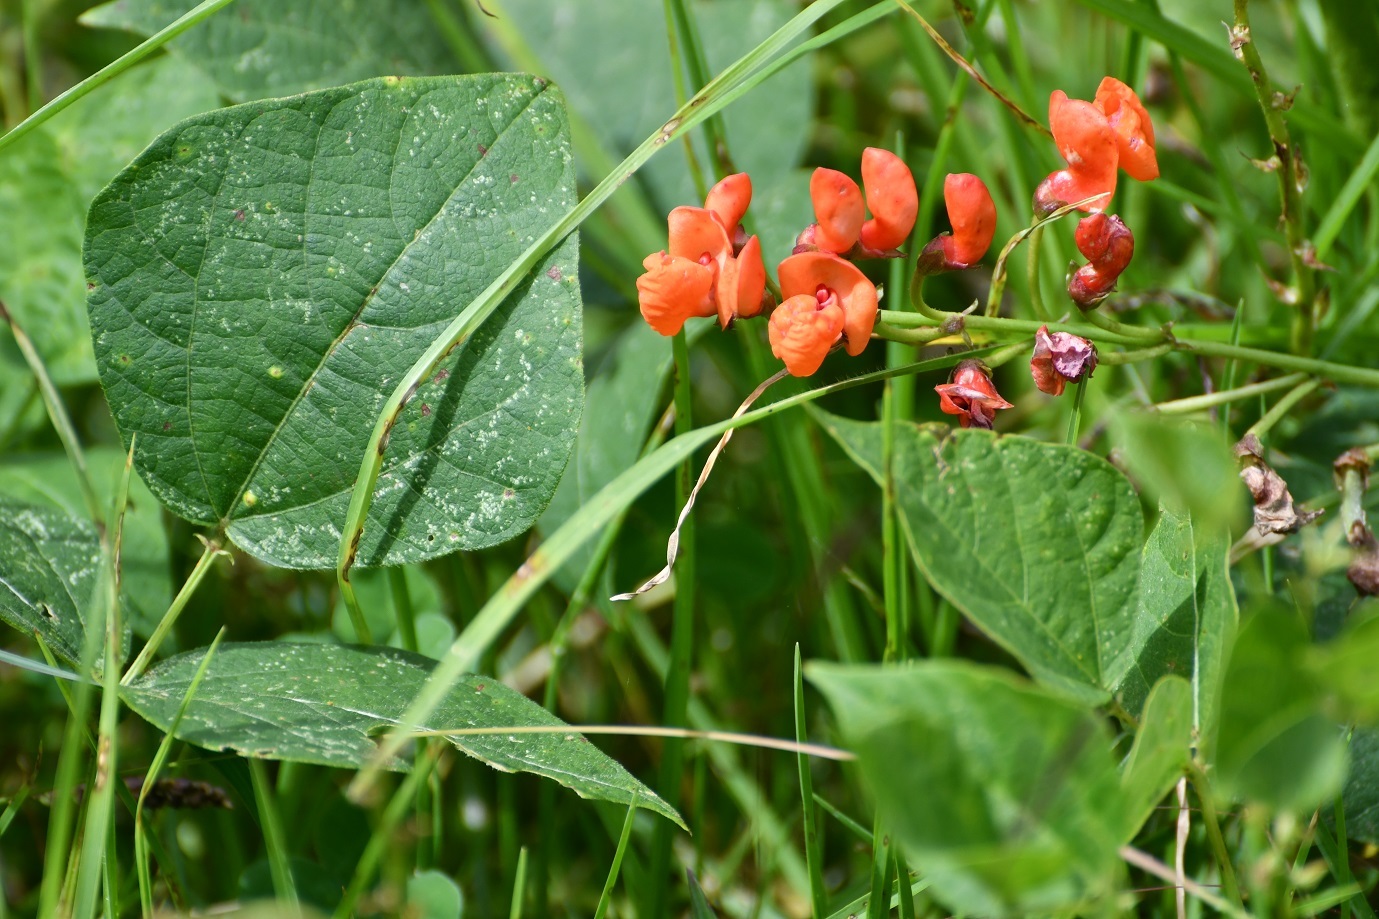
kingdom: Plantae
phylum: Tracheophyta
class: Magnoliopsida
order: Fabales
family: Fabaceae
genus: Phaseolus
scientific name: Phaseolus coccineus
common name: Runner bean
